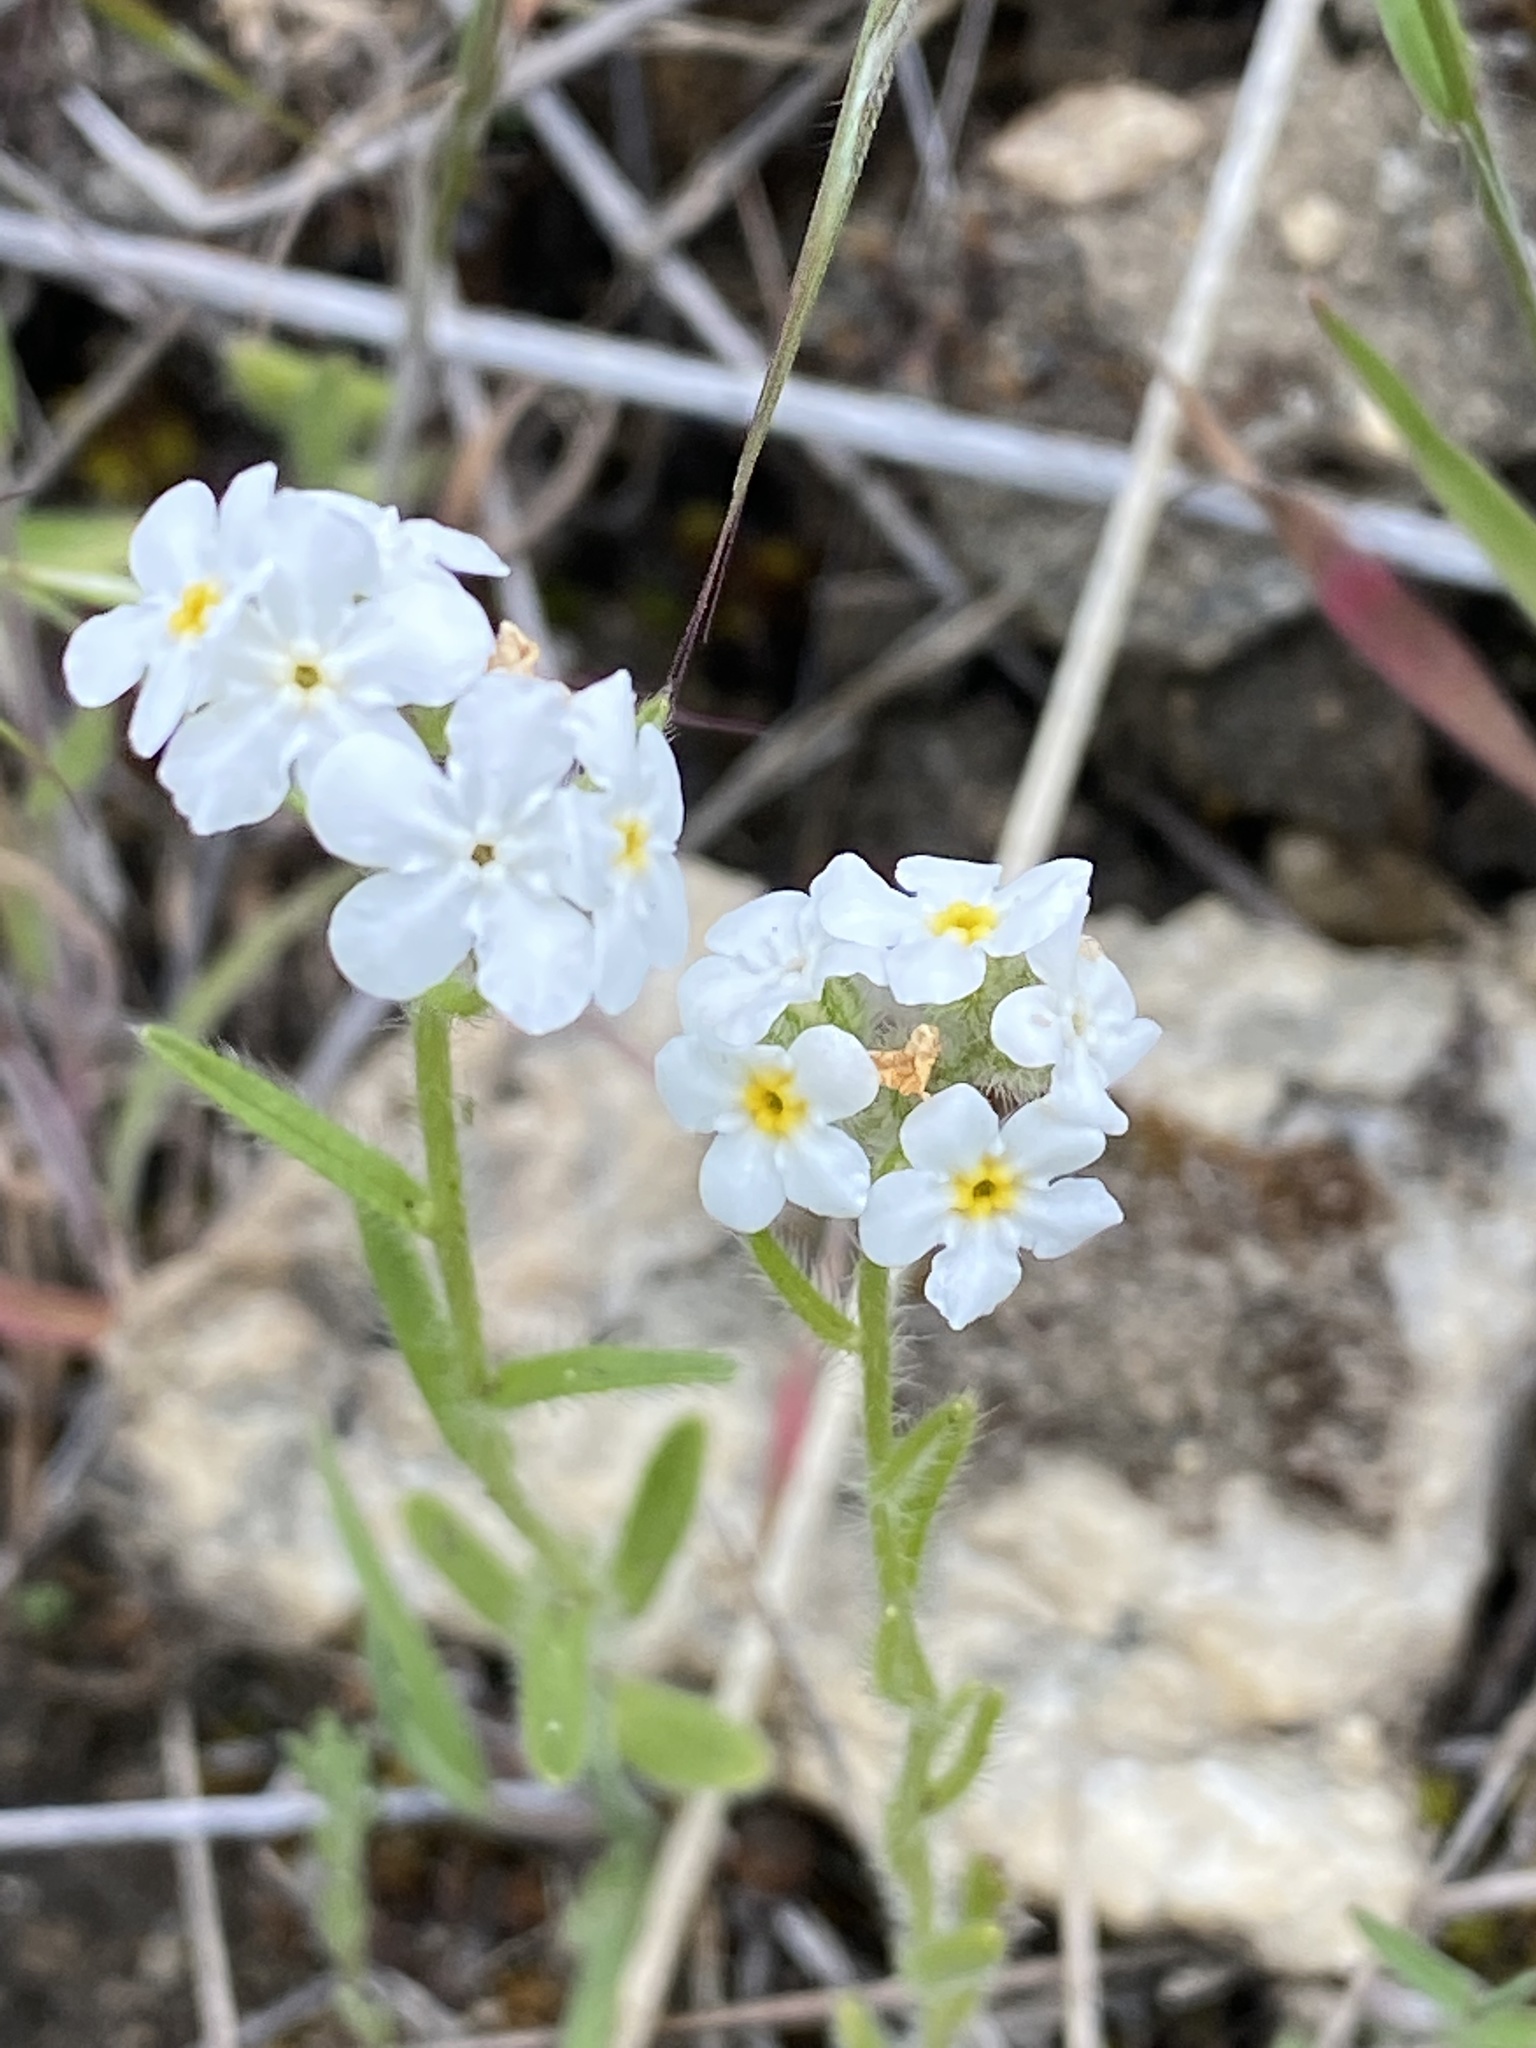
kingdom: Plantae
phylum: Tracheophyta
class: Magnoliopsida
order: Boraginales
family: Boraginaceae
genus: Cryptantha
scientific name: Cryptantha intermedia
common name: Clearwater cryptantha
